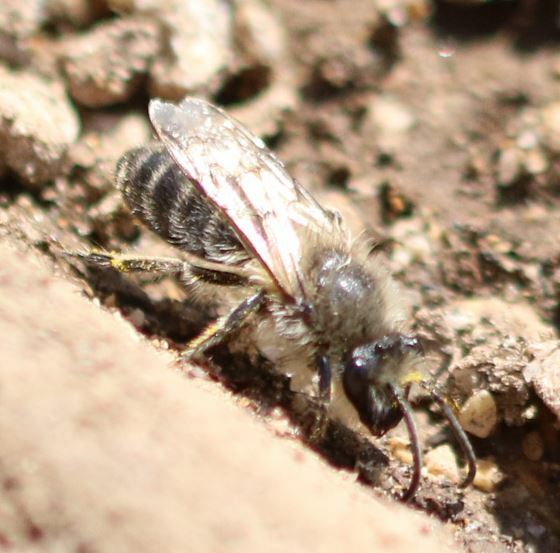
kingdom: Animalia
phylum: Arthropoda
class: Insecta
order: Hymenoptera
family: Colletidae
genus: Colletes
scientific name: Colletes cunicularius
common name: Early colletes
